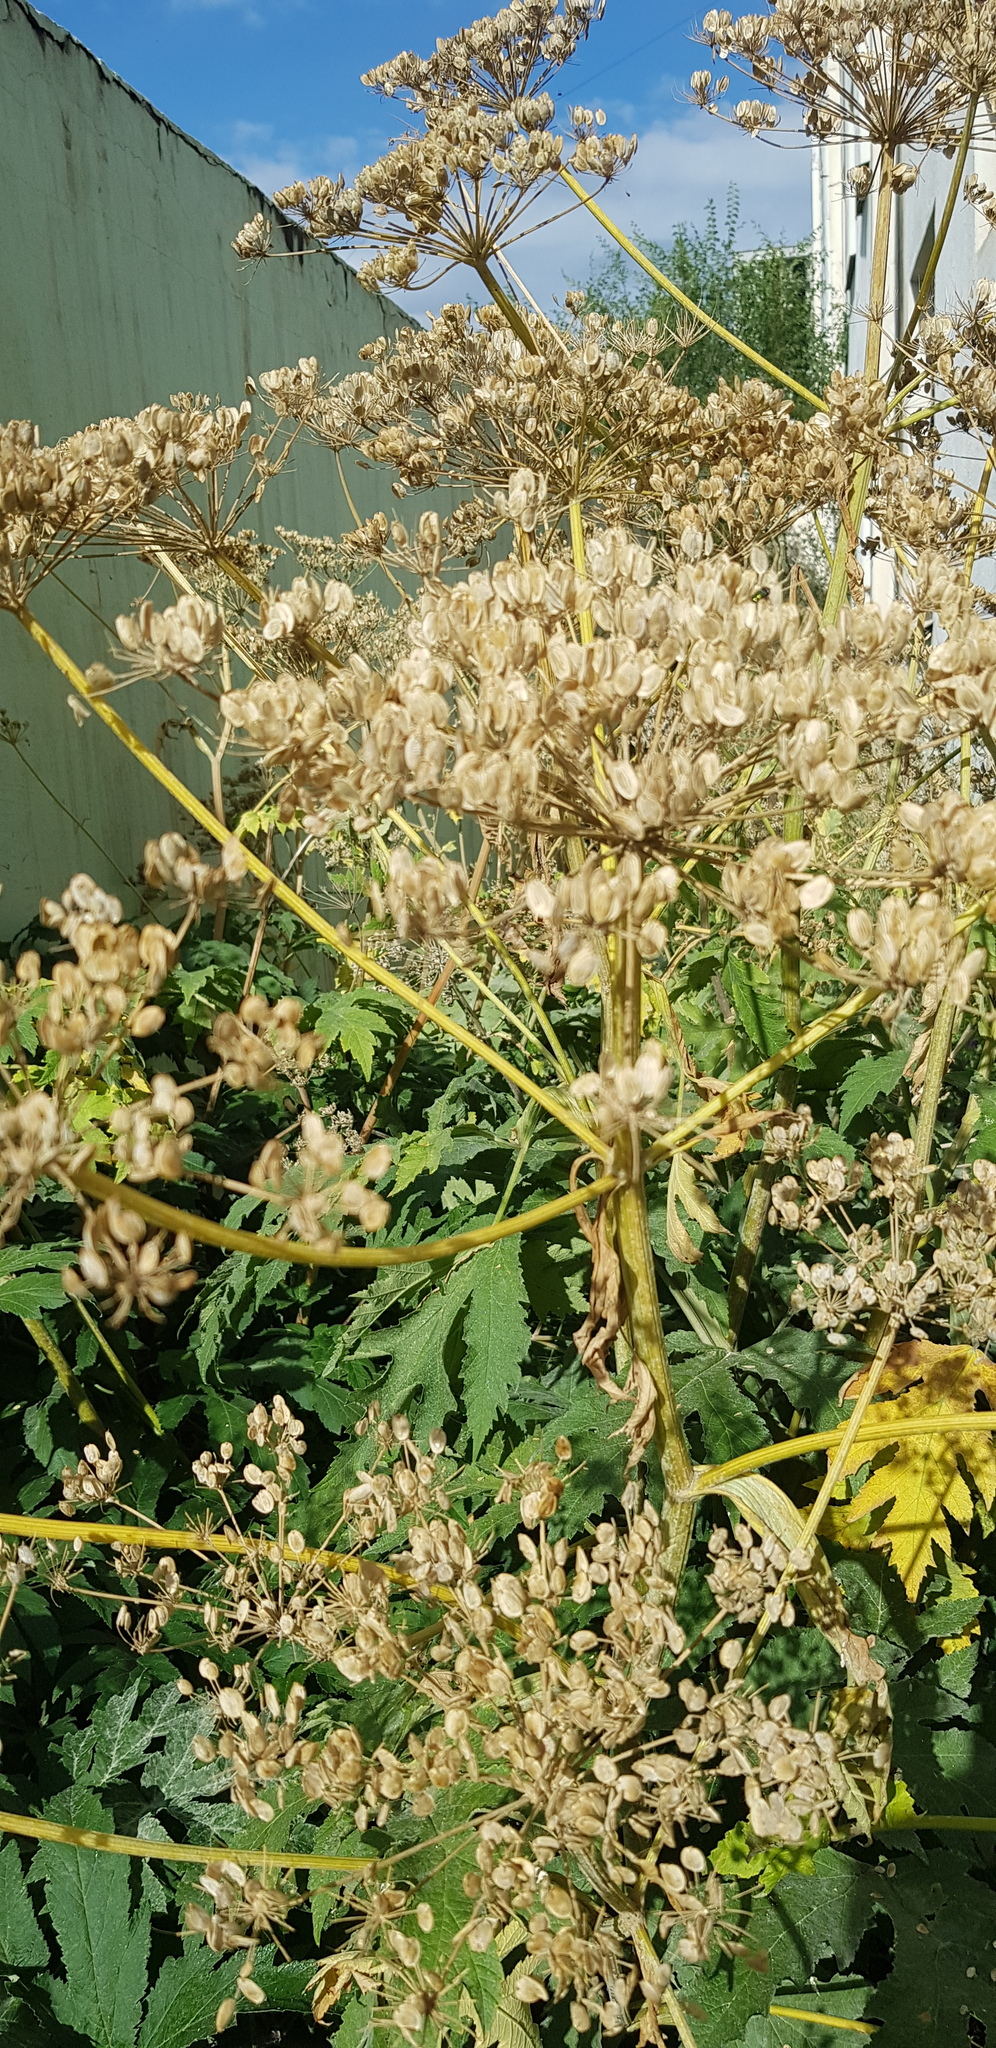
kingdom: Plantae
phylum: Tracheophyta
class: Magnoliopsida
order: Apiales
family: Apiaceae
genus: Heracleum
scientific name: Heracleum dissectum
